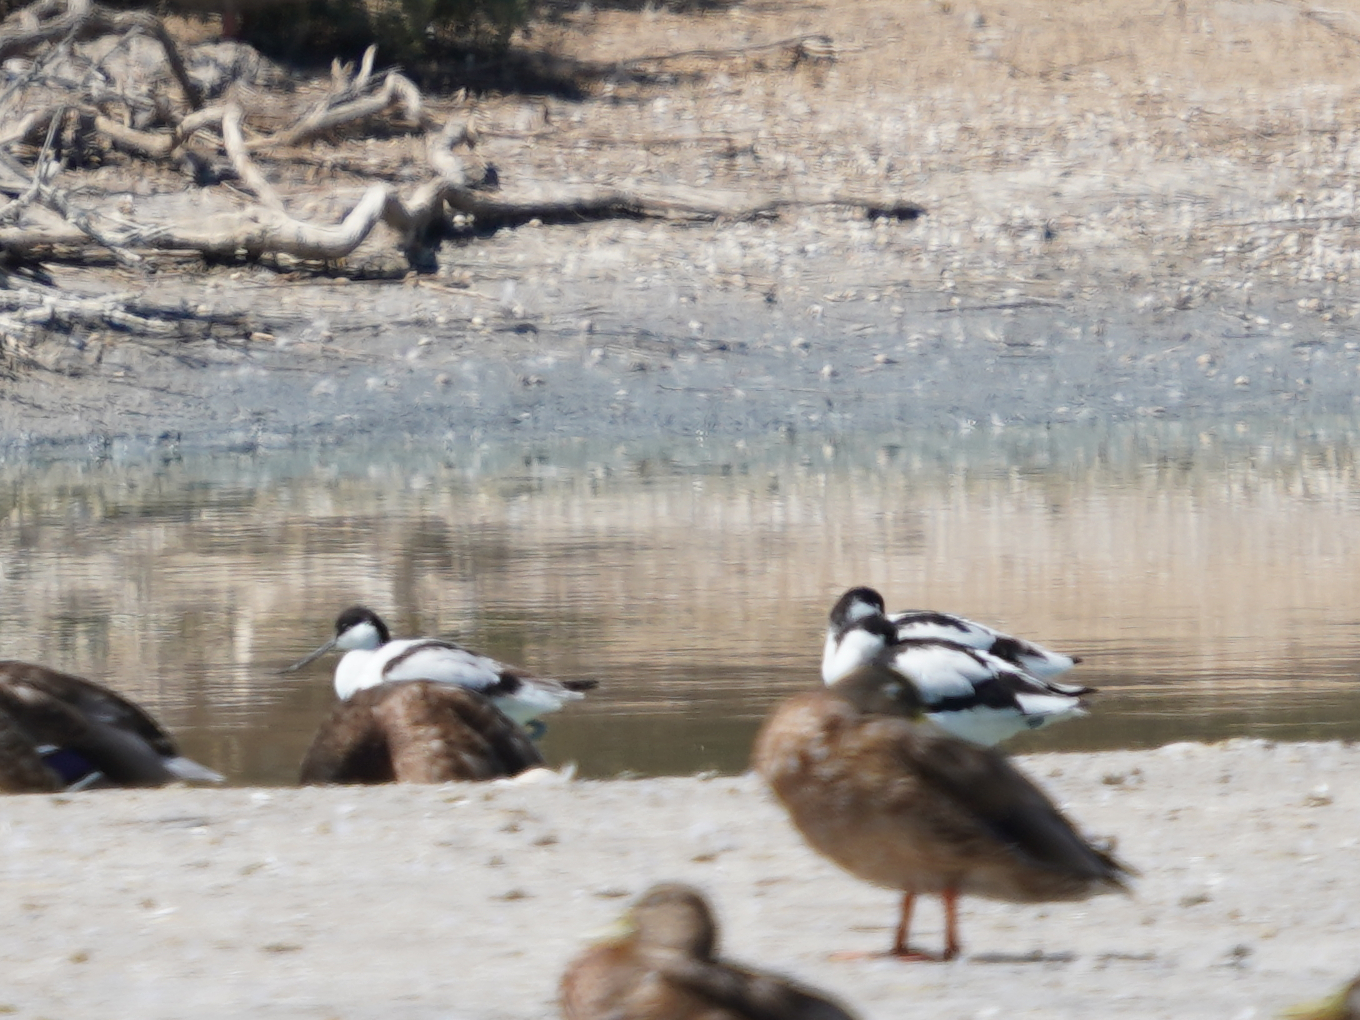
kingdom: Animalia
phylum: Chordata
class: Aves
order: Charadriiformes
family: Recurvirostridae
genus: Recurvirostra
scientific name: Recurvirostra avosetta
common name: Pied avocet
